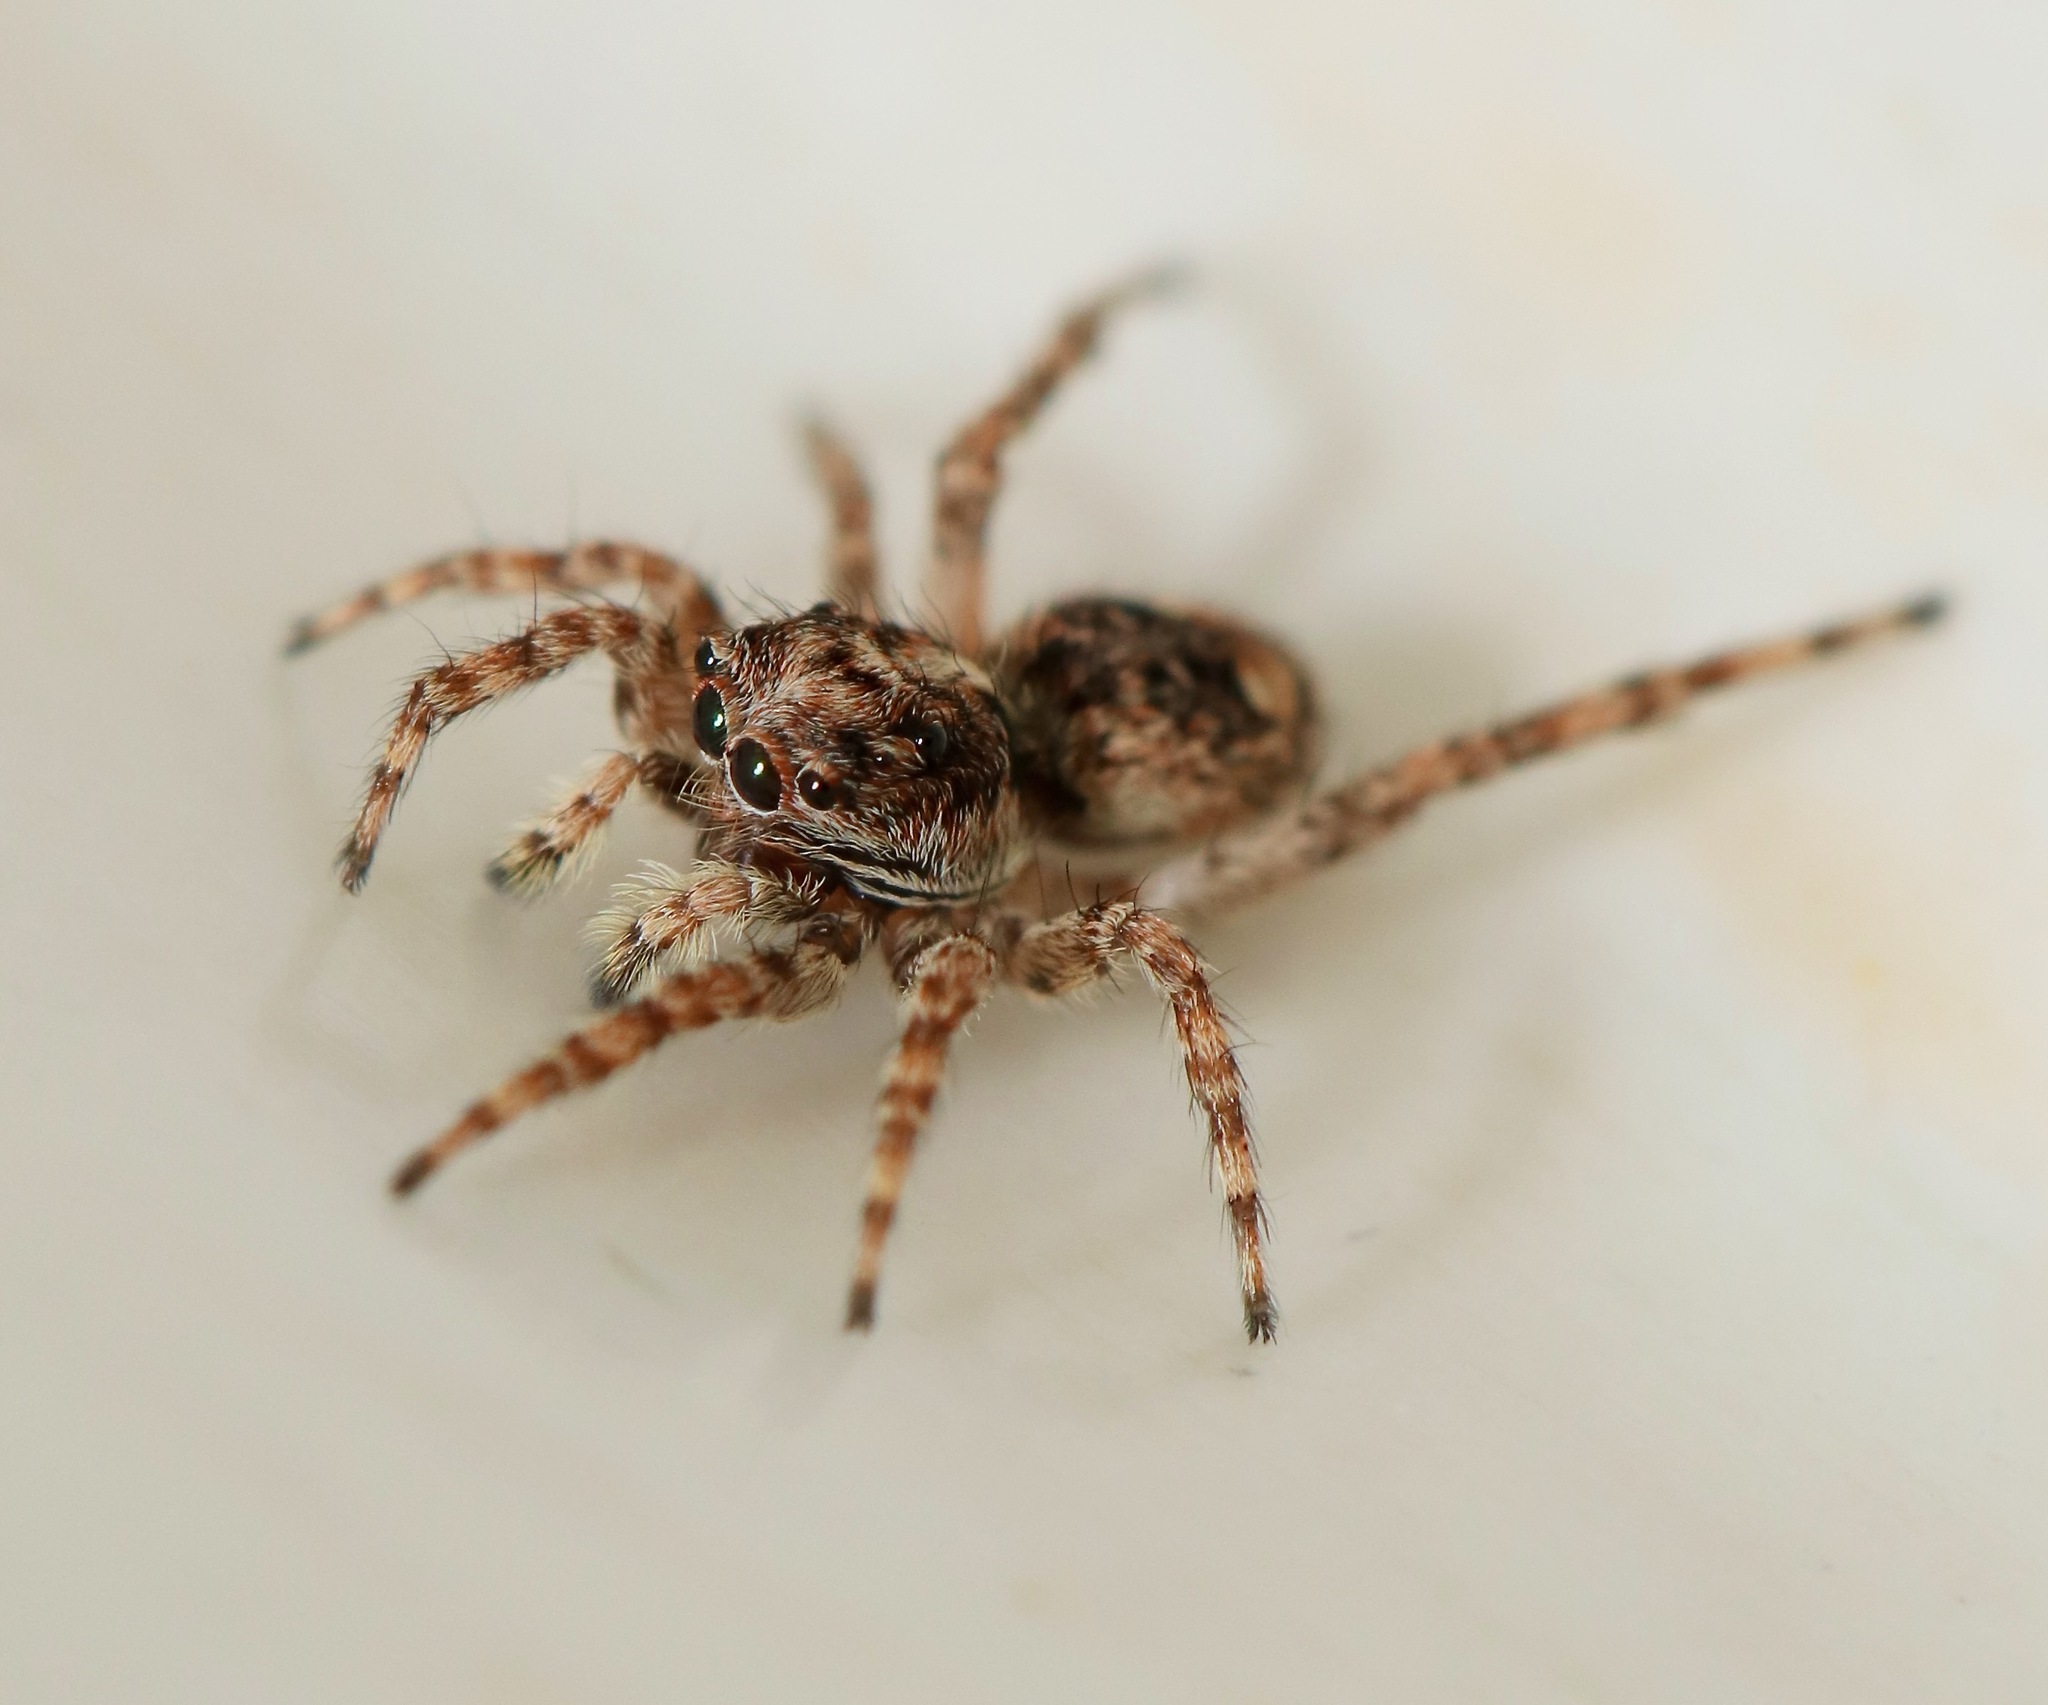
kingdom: Animalia
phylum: Arthropoda
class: Arachnida
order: Araneae
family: Salticidae
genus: Attulus
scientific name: Attulus fasciger
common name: Asiatic wall jumping spider
